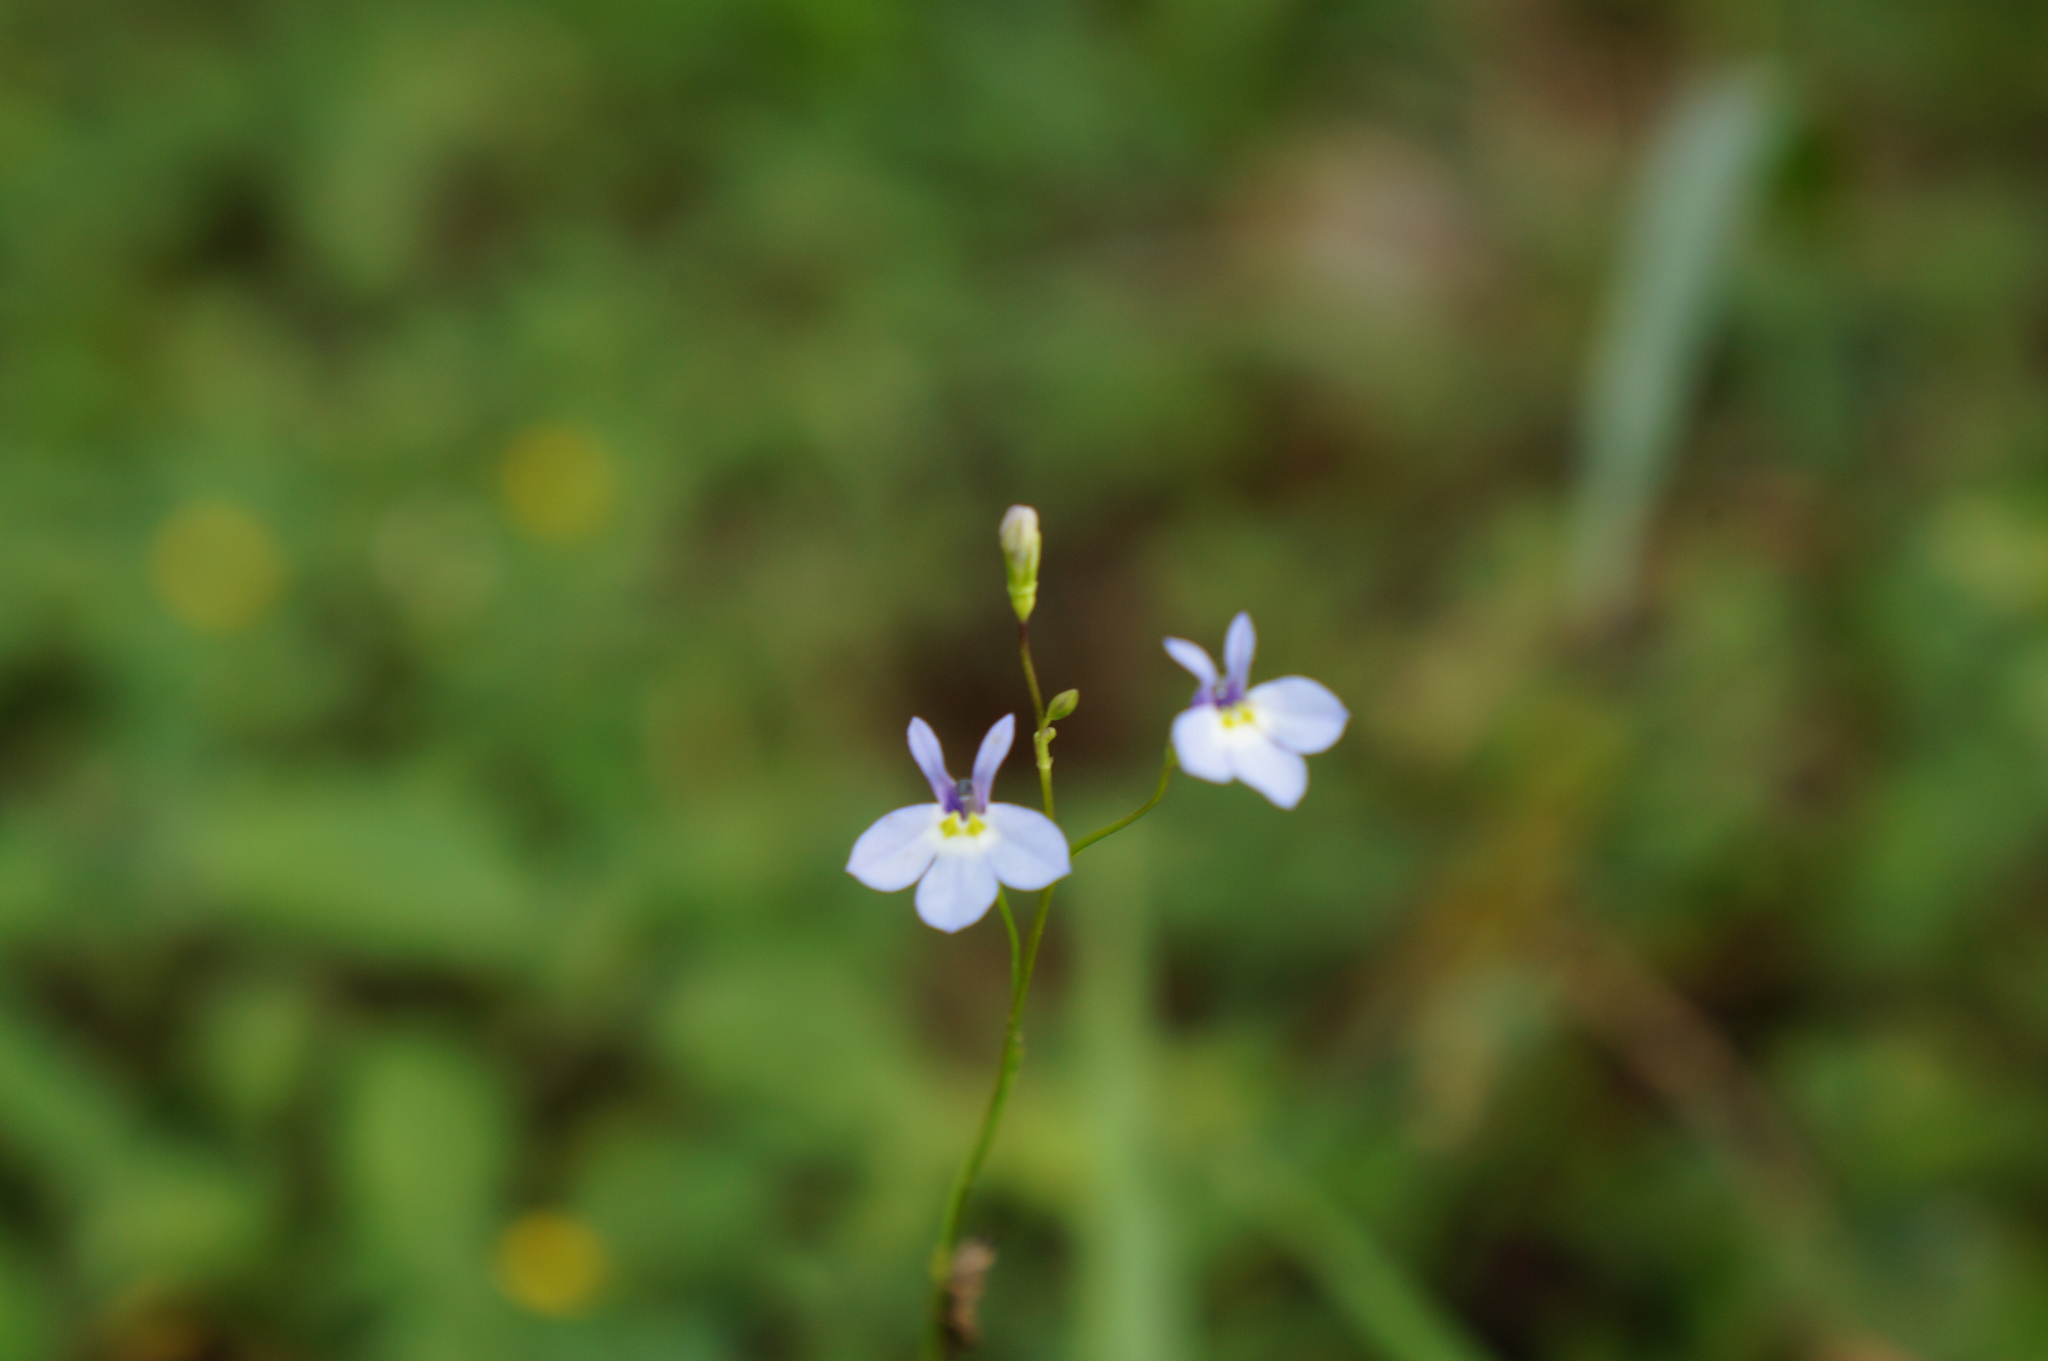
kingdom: Plantae
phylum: Tracheophyta
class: Magnoliopsida
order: Asterales
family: Campanulaceae
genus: Lobelia
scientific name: Lobelia divaricata
